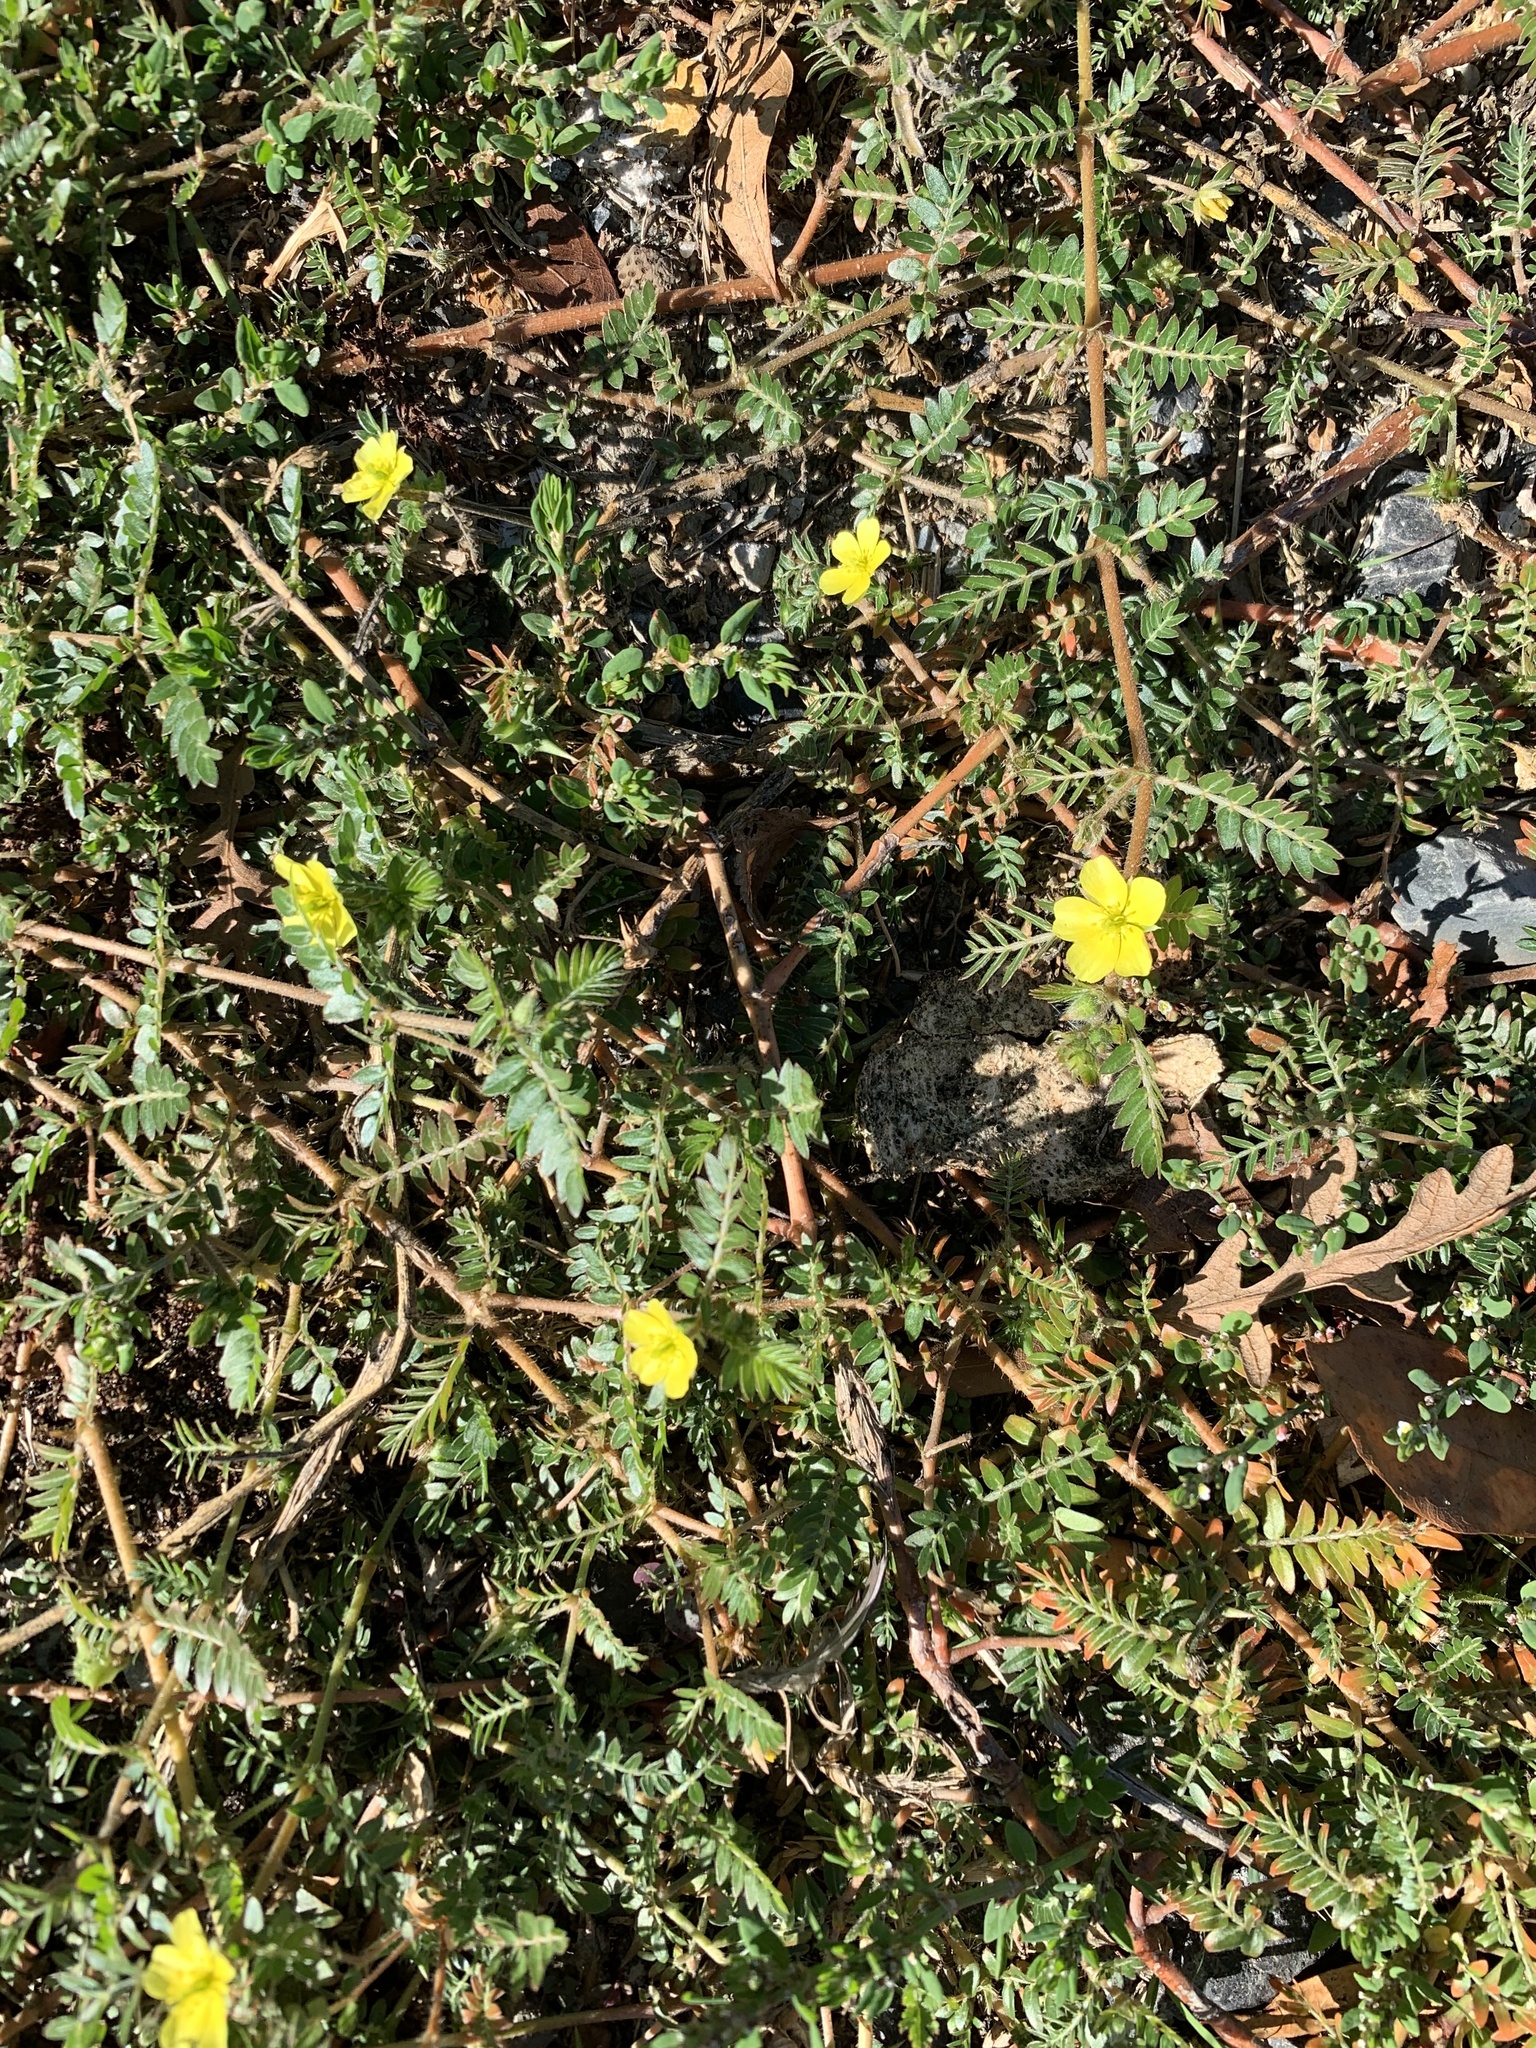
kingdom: Plantae
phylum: Tracheophyta
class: Magnoliopsida
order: Zygophyllales
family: Zygophyllaceae
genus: Tribulus
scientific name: Tribulus terrestris
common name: Puncturevine
